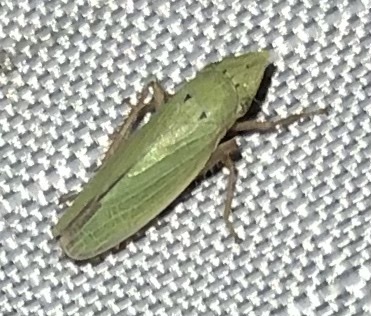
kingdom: Animalia
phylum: Arthropoda
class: Insecta
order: Hemiptera
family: Cicadellidae
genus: Draeculacephala
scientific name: Draeculacephala balli
